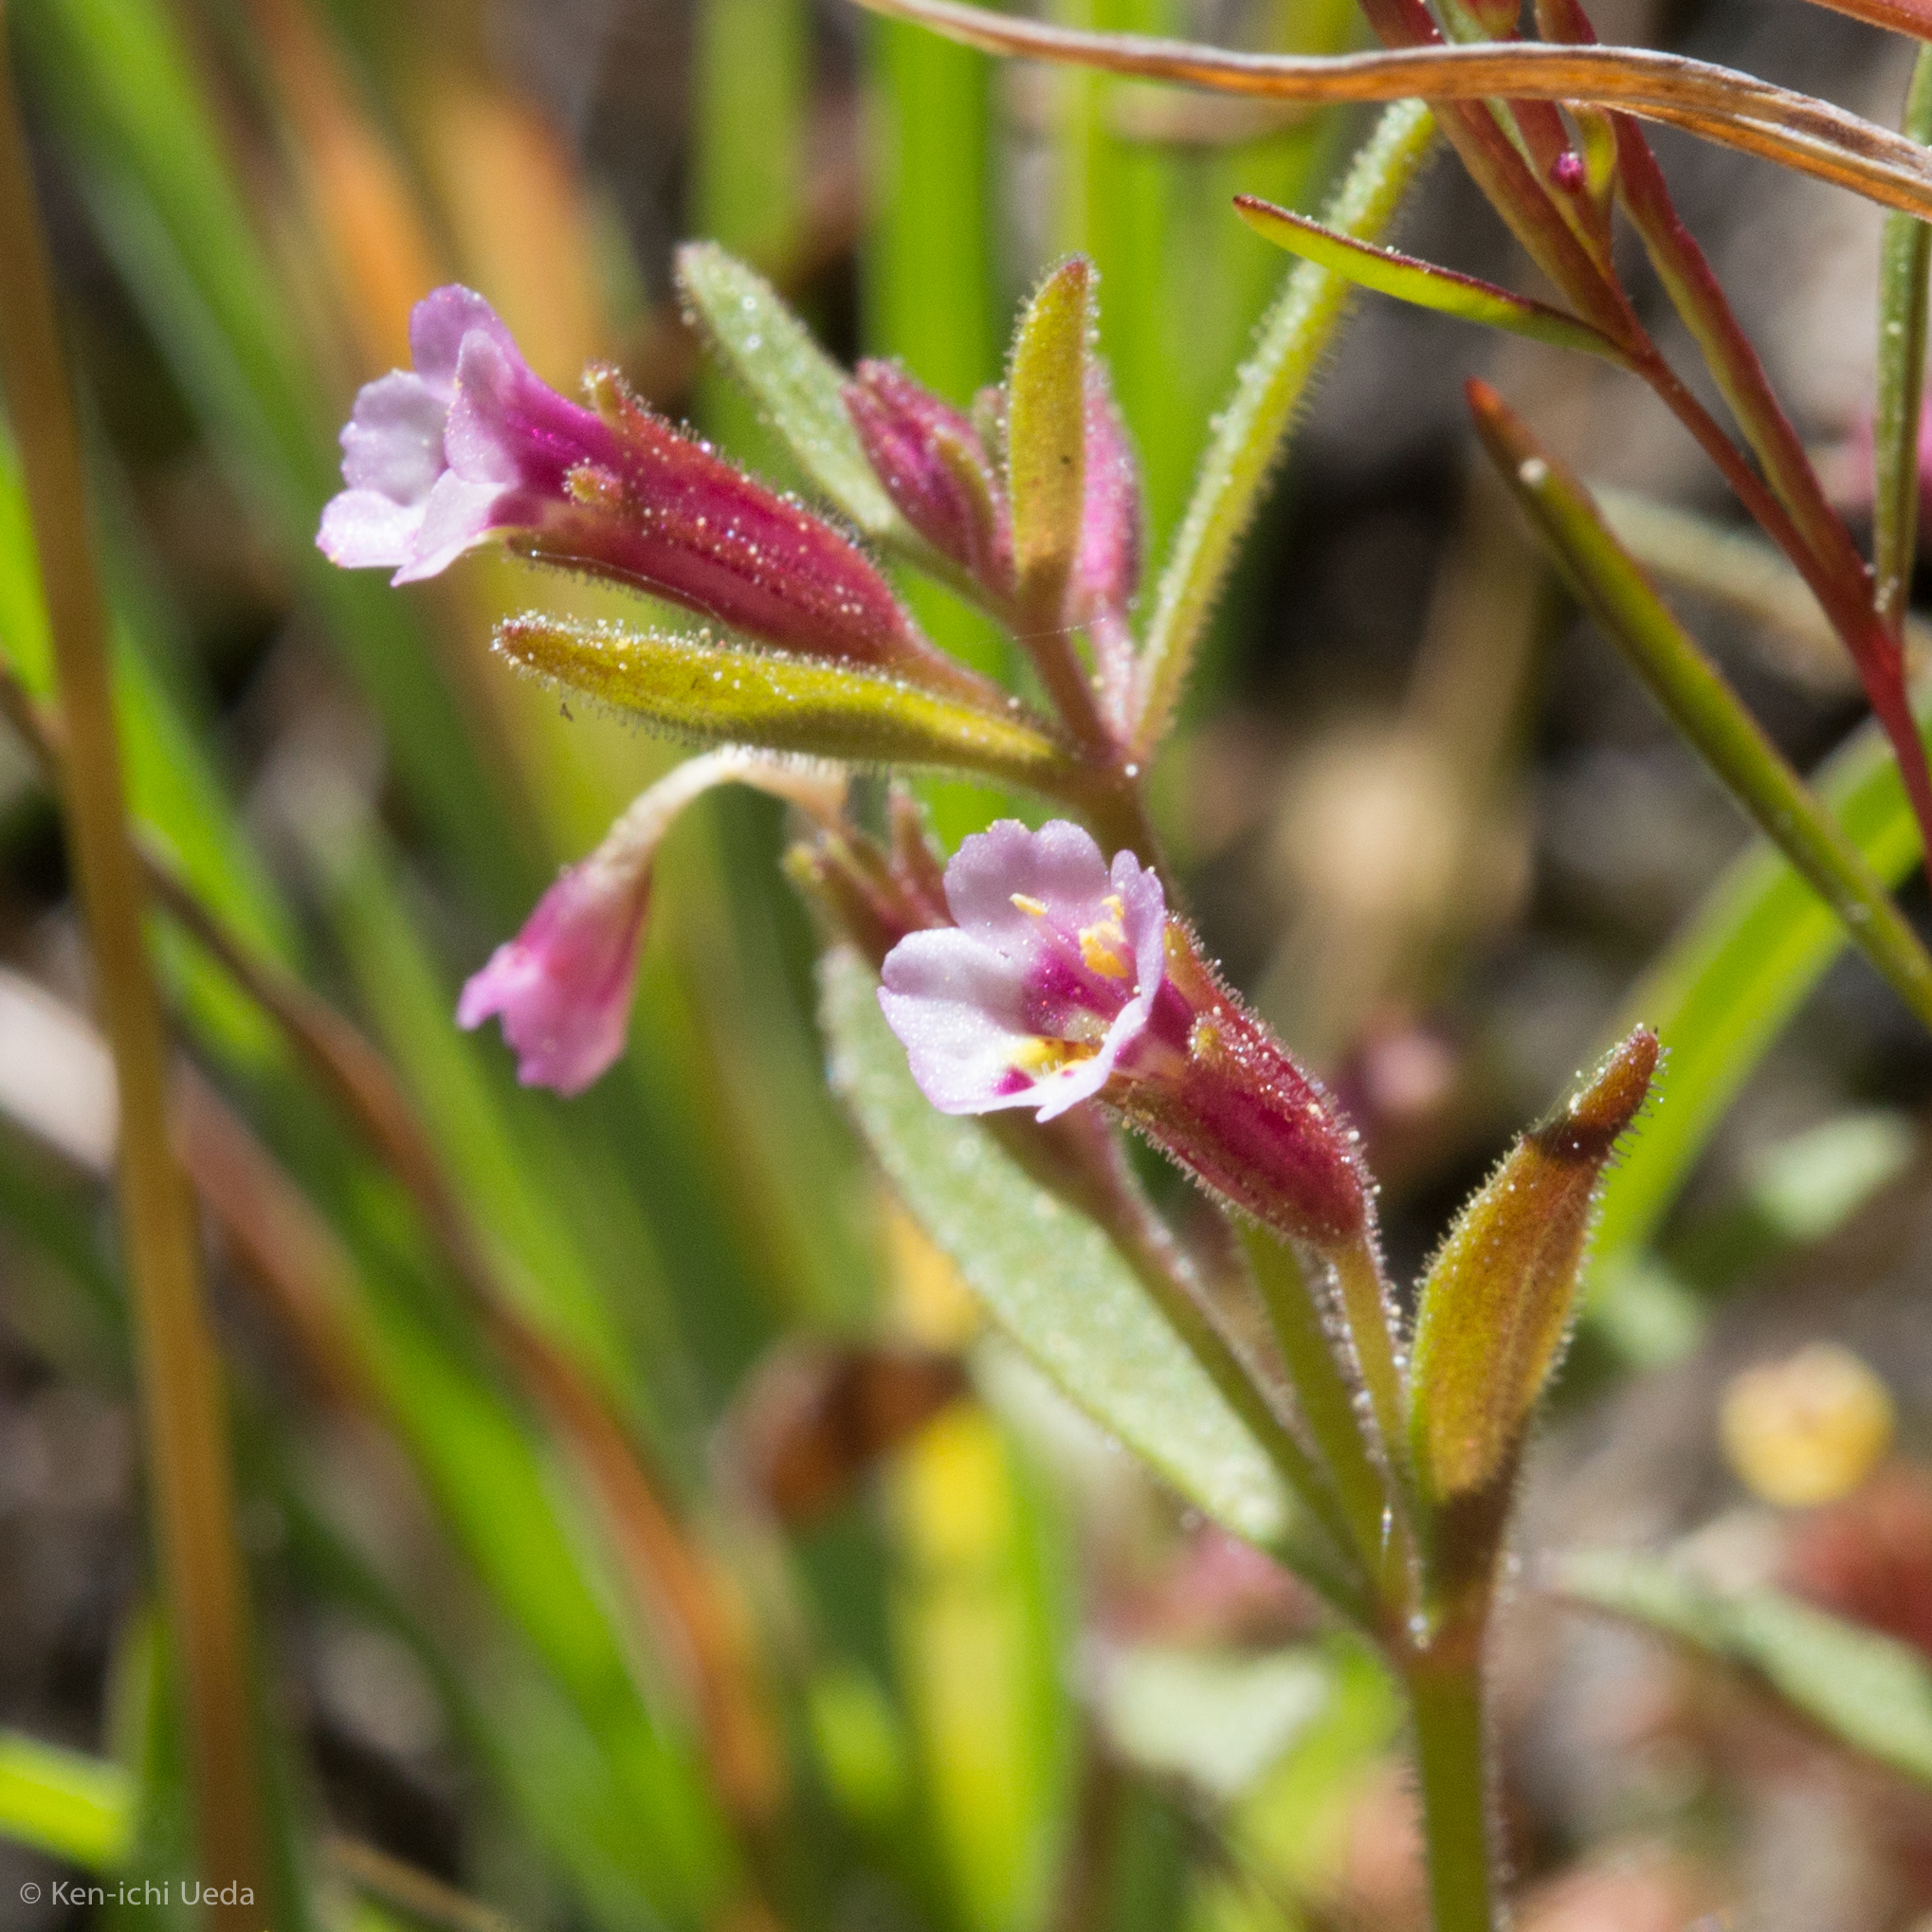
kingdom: Plantae
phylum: Tracheophyta
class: Magnoliopsida
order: Lamiales
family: Phrymaceae
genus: Erythranthe
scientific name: Erythranthe breweri
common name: Brewer's monkeyflower
